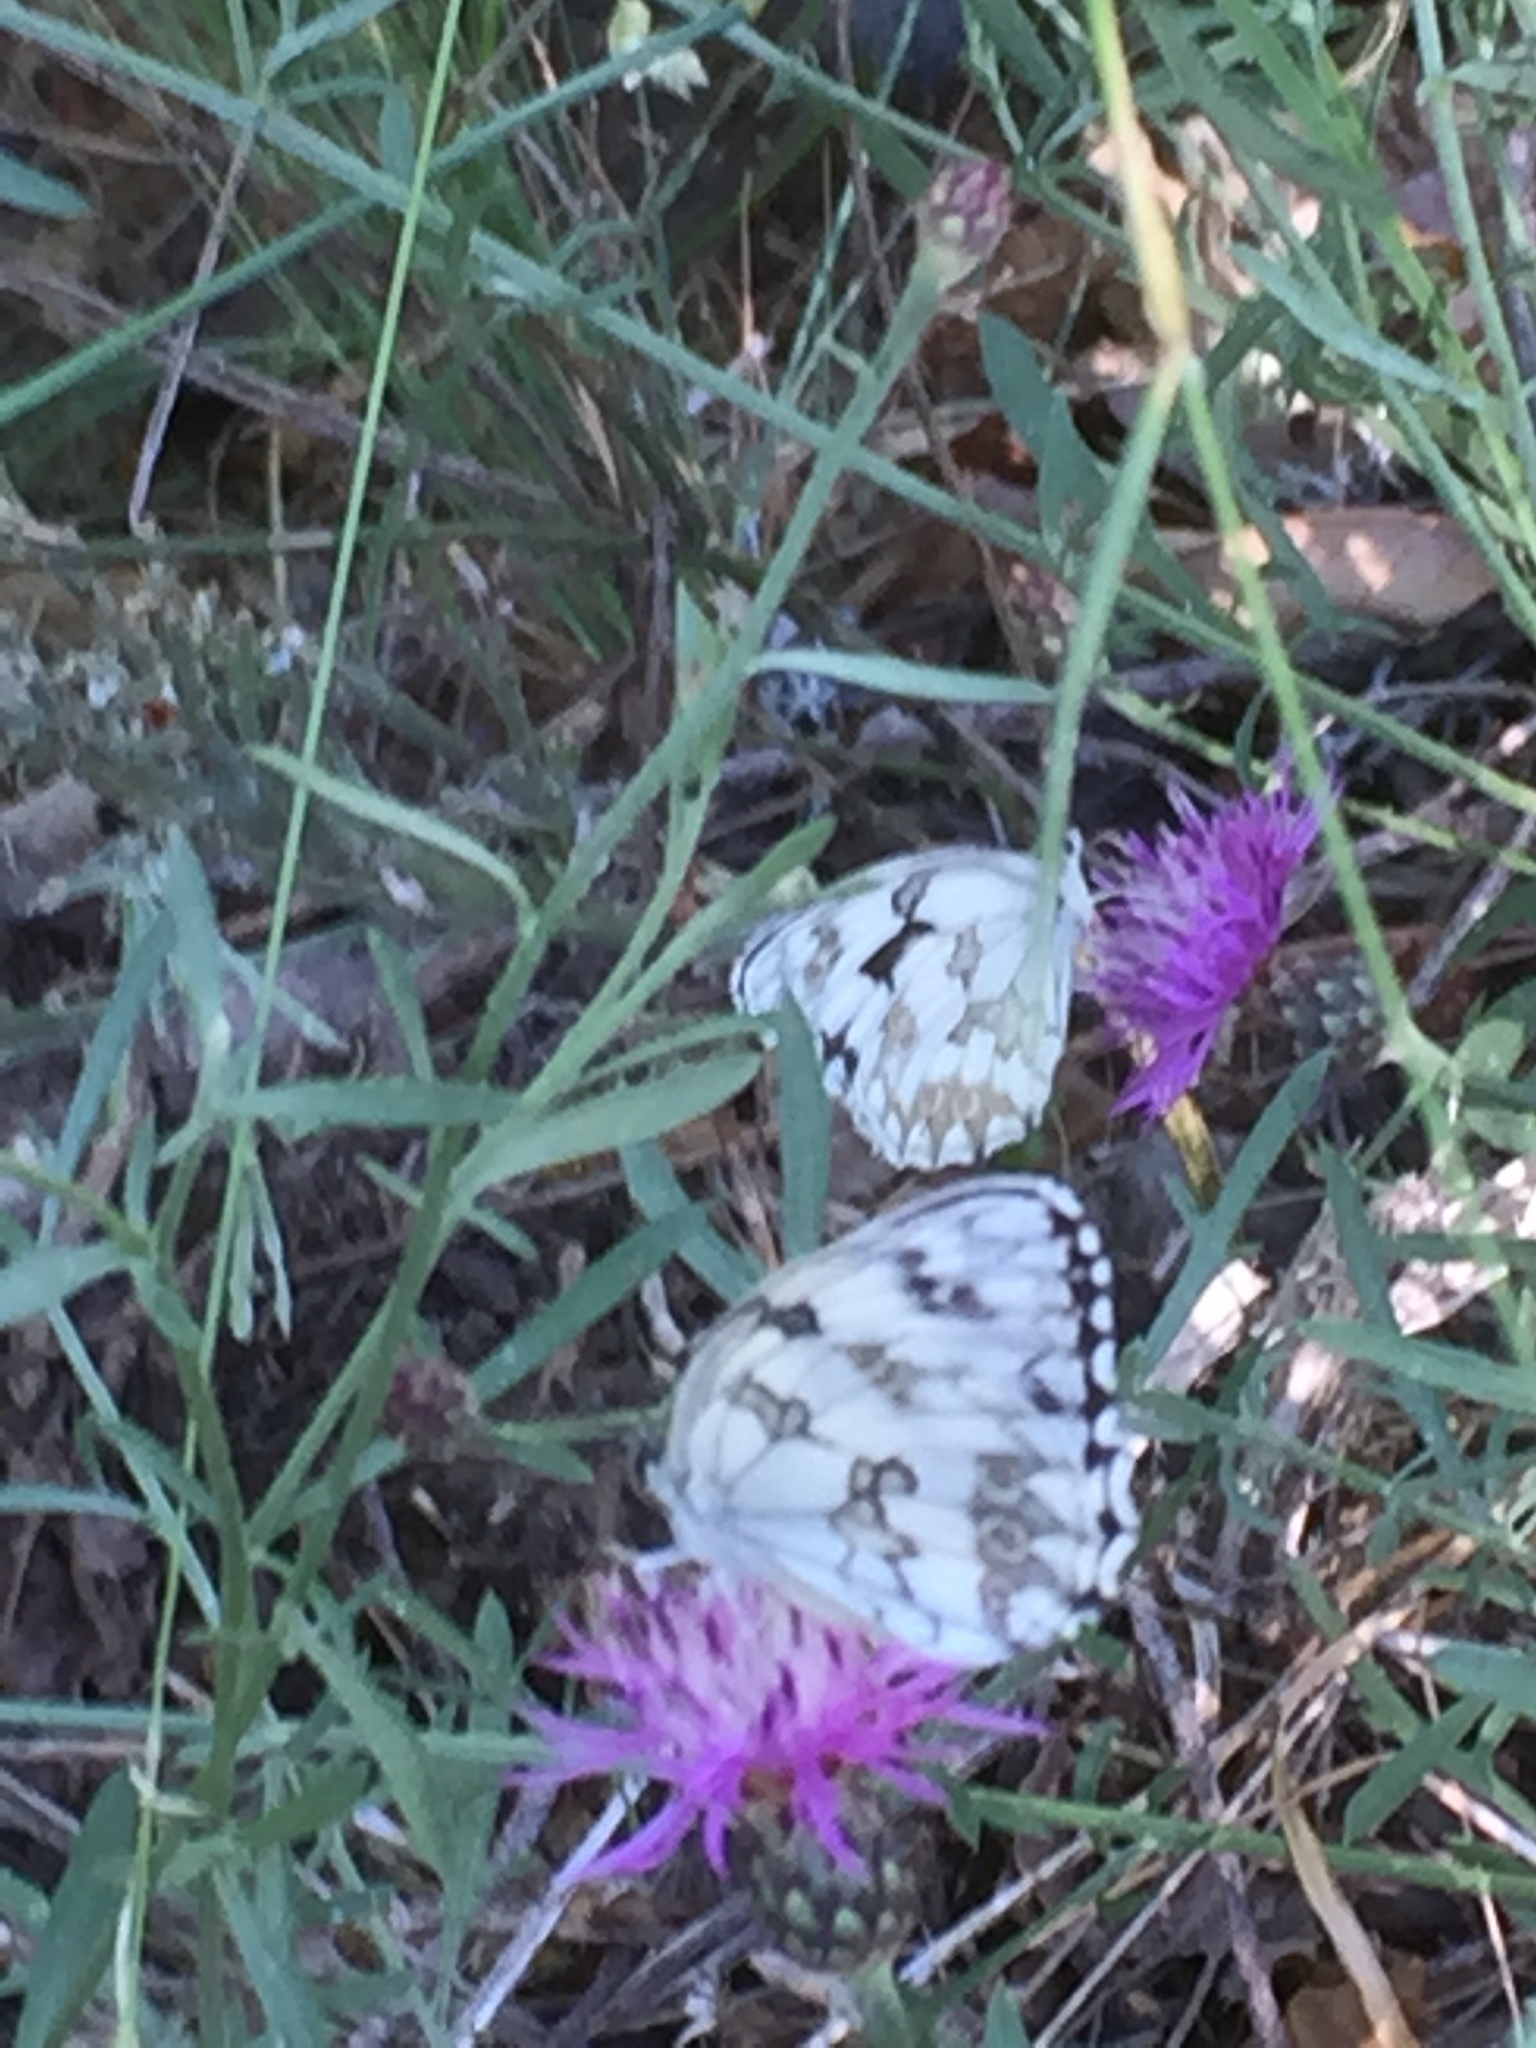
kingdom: Animalia
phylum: Arthropoda
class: Insecta
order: Lepidoptera
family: Nymphalidae
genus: Melanargia
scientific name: Melanargia lachesis
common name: Iberian marbled white
